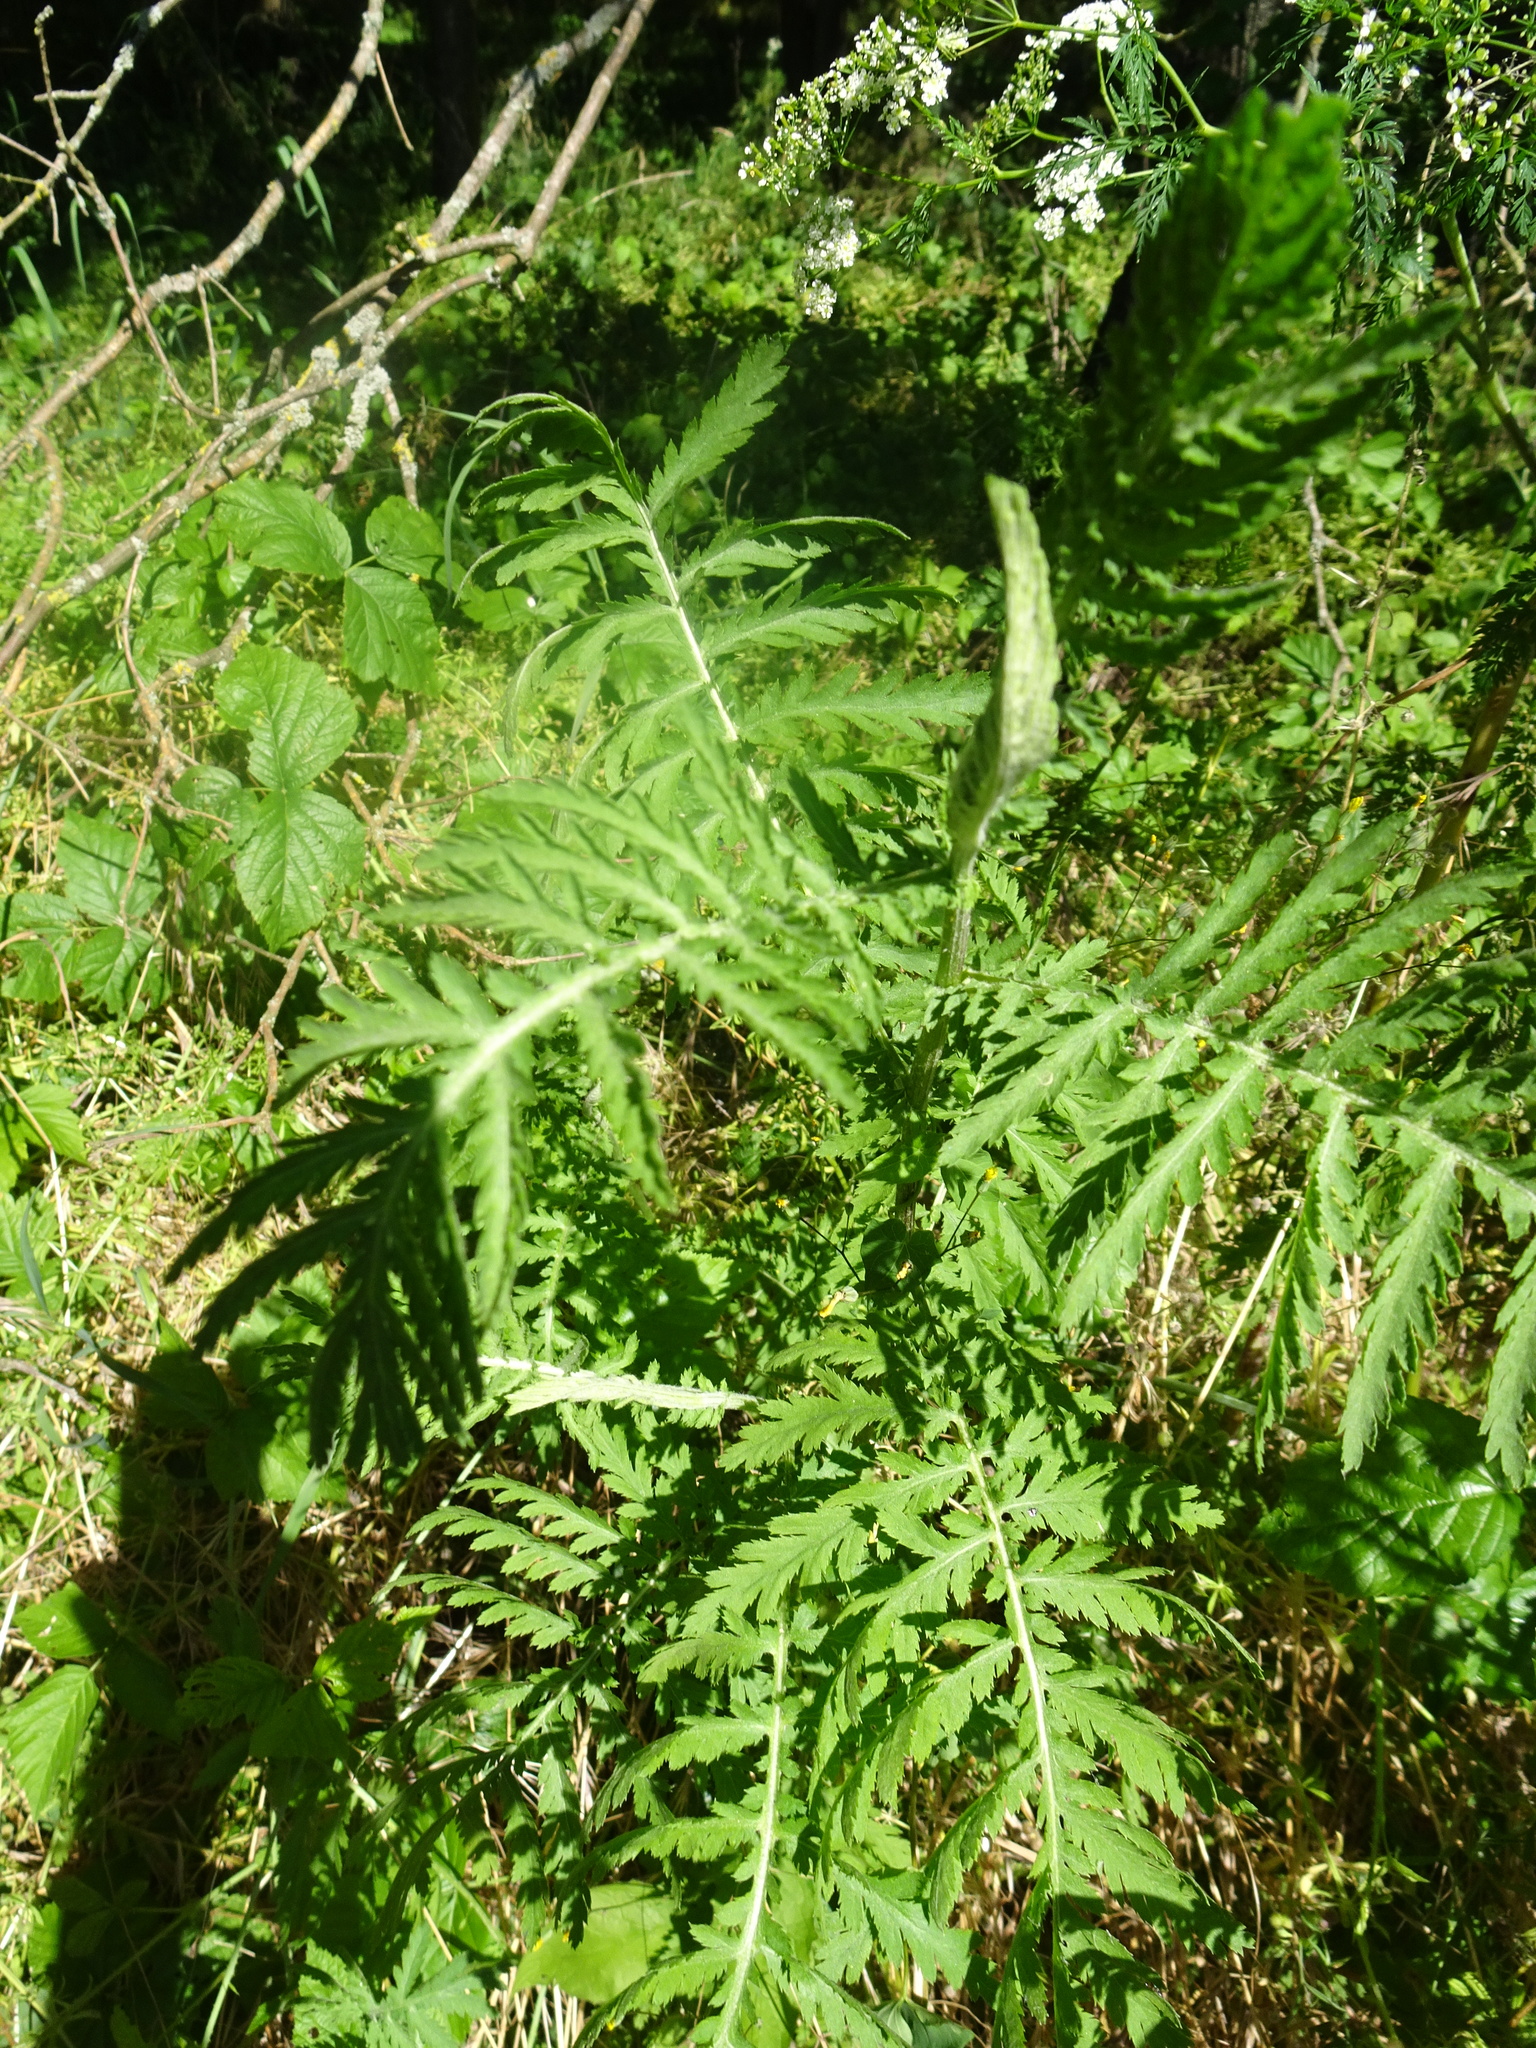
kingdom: Plantae
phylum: Tracheophyta
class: Magnoliopsida
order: Asterales
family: Asteraceae
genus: Tanacetum
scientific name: Tanacetum vulgare
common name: Common tansy
